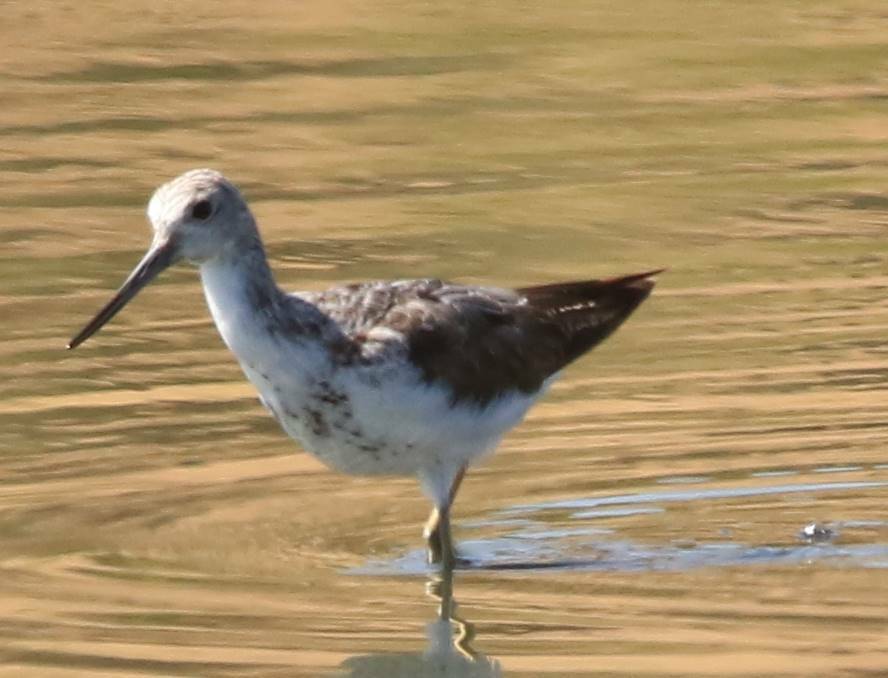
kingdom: Animalia
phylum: Chordata
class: Aves
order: Charadriiformes
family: Scolopacidae
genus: Tringa
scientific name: Tringa nebularia
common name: Common greenshank
